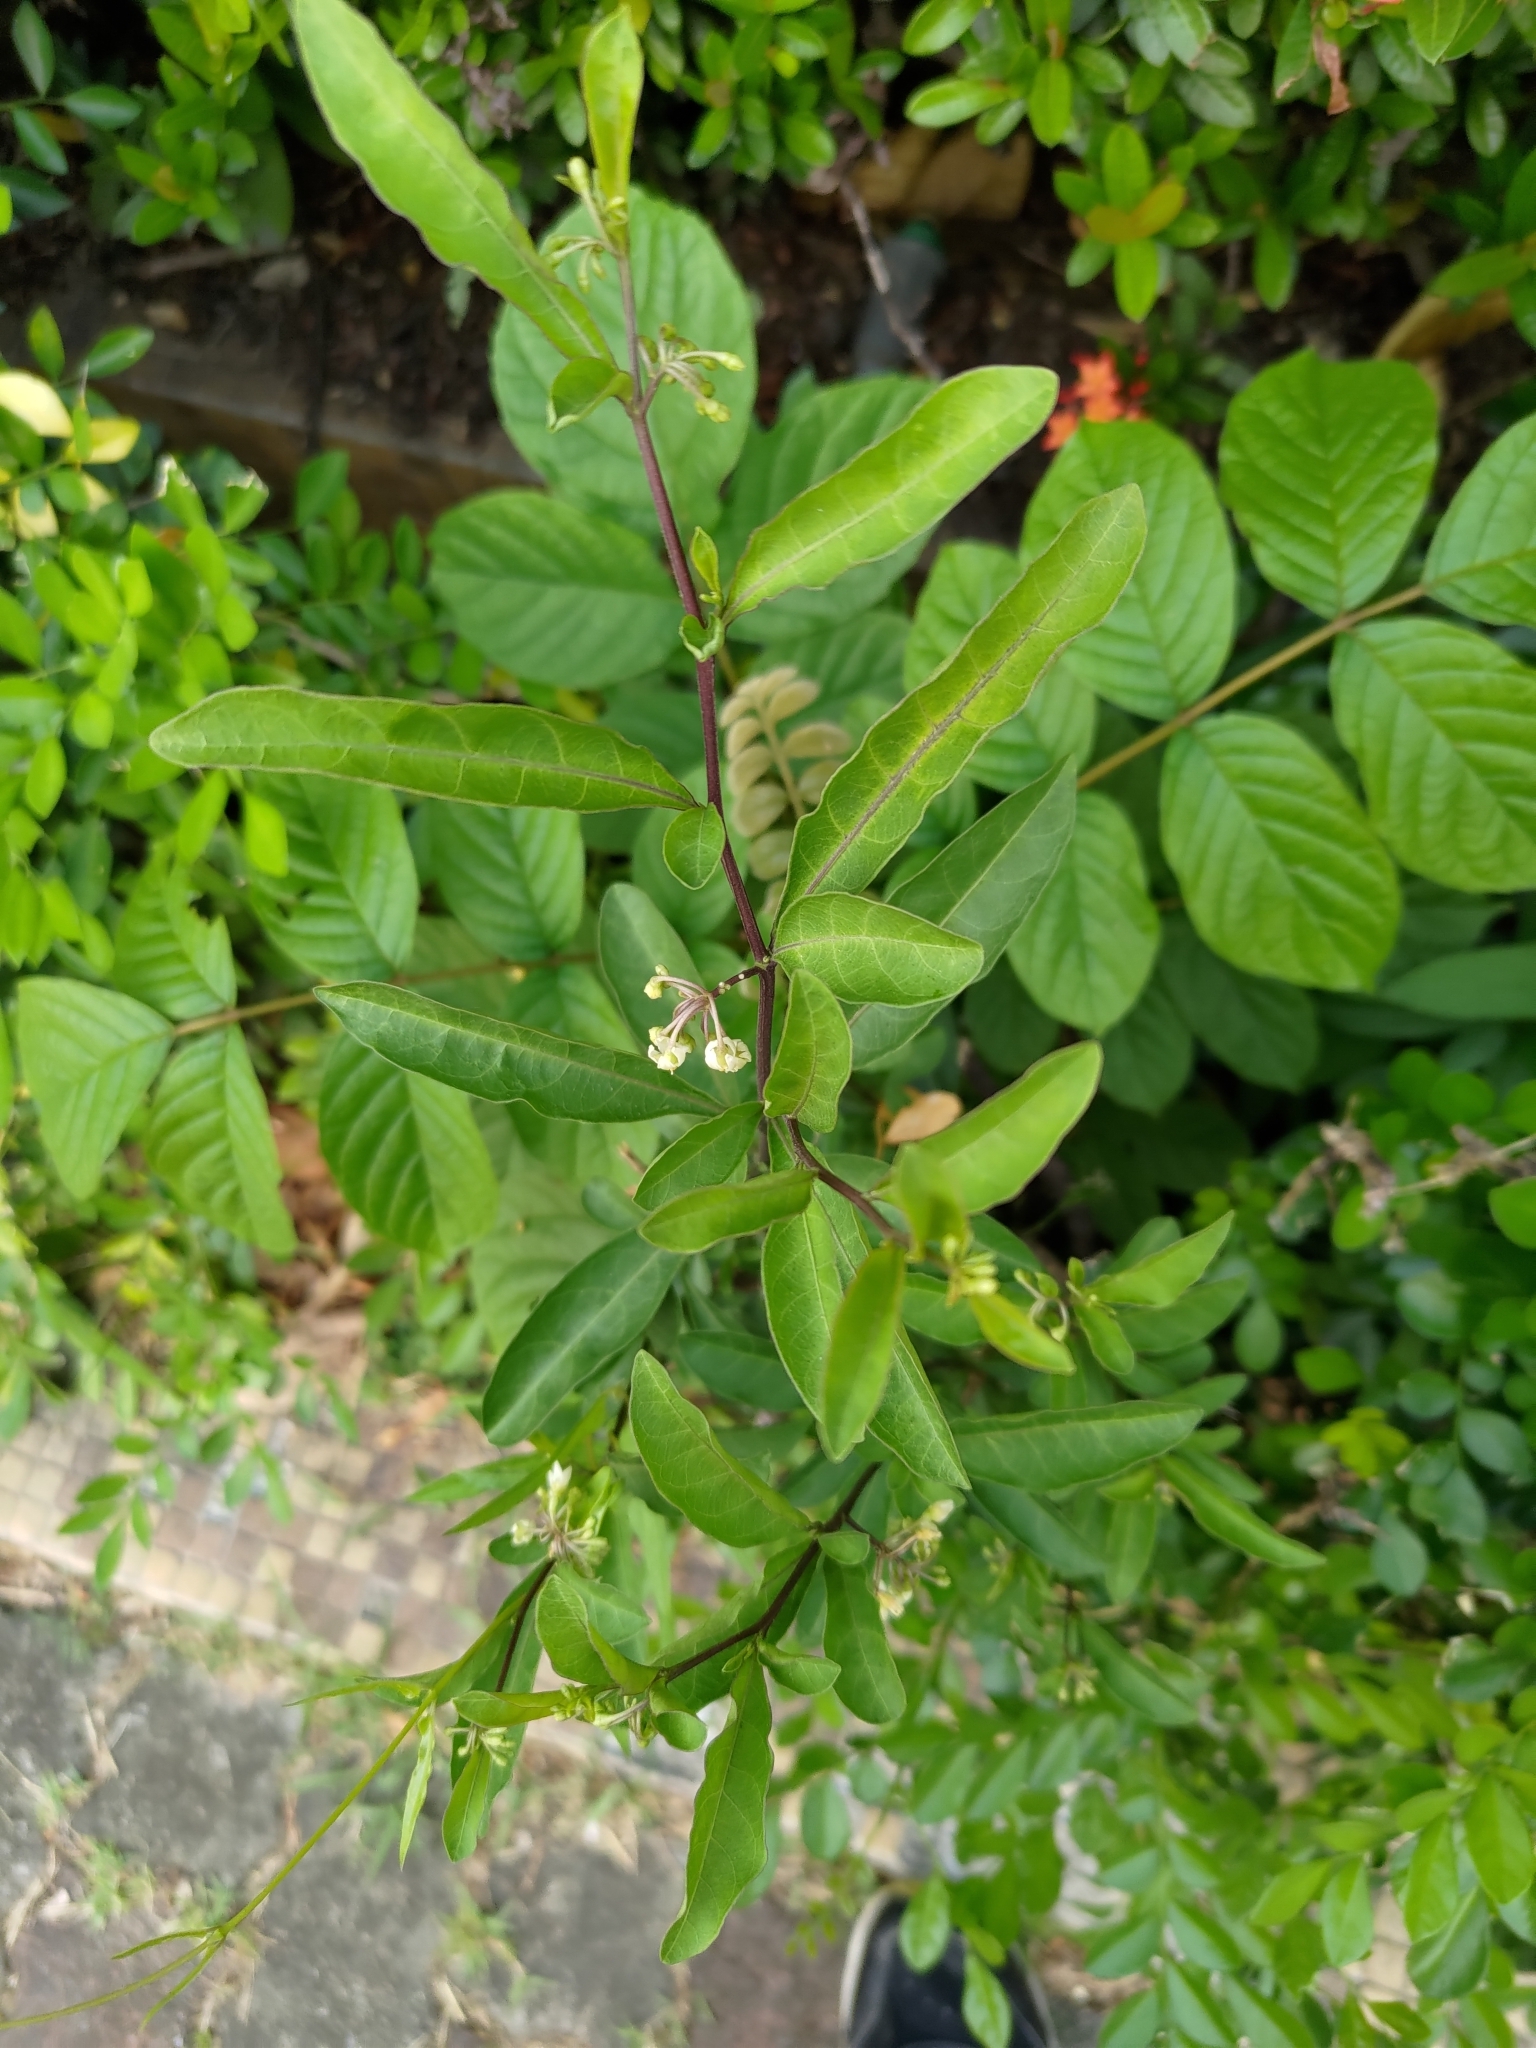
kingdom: Plantae
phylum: Tracheophyta
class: Magnoliopsida
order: Solanales
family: Solanaceae
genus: Solanum
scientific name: Solanum diphyllum
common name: Twoleaf nightshade
